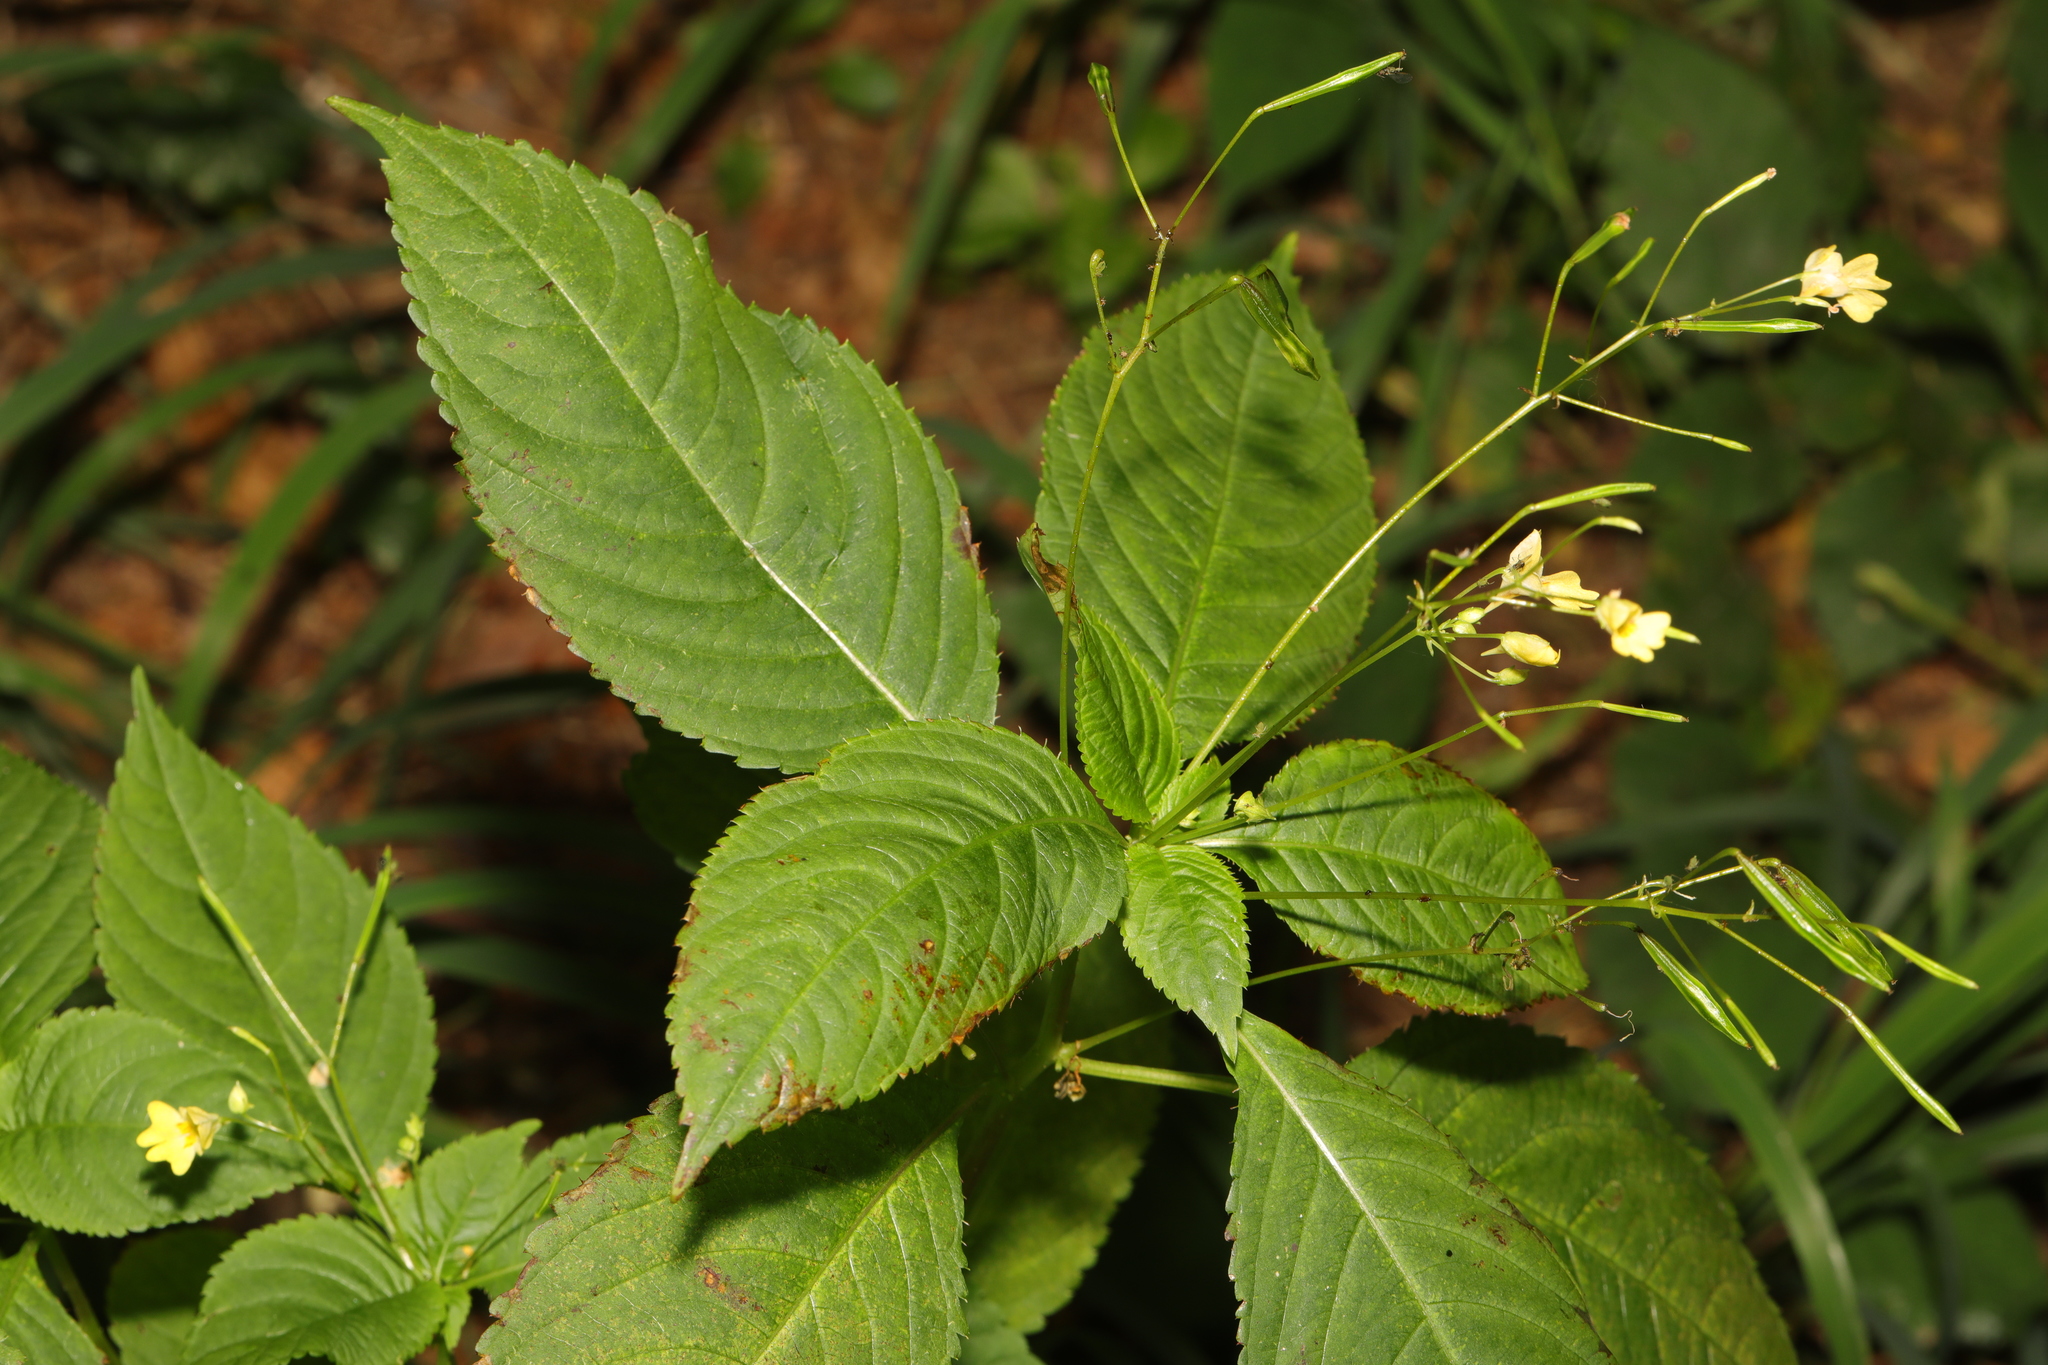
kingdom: Plantae
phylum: Tracheophyta
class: Magnoliopsida
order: Ericales
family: Balsaminaceae
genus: Impatiens
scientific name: Impatiens parviflora
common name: Small balsam
